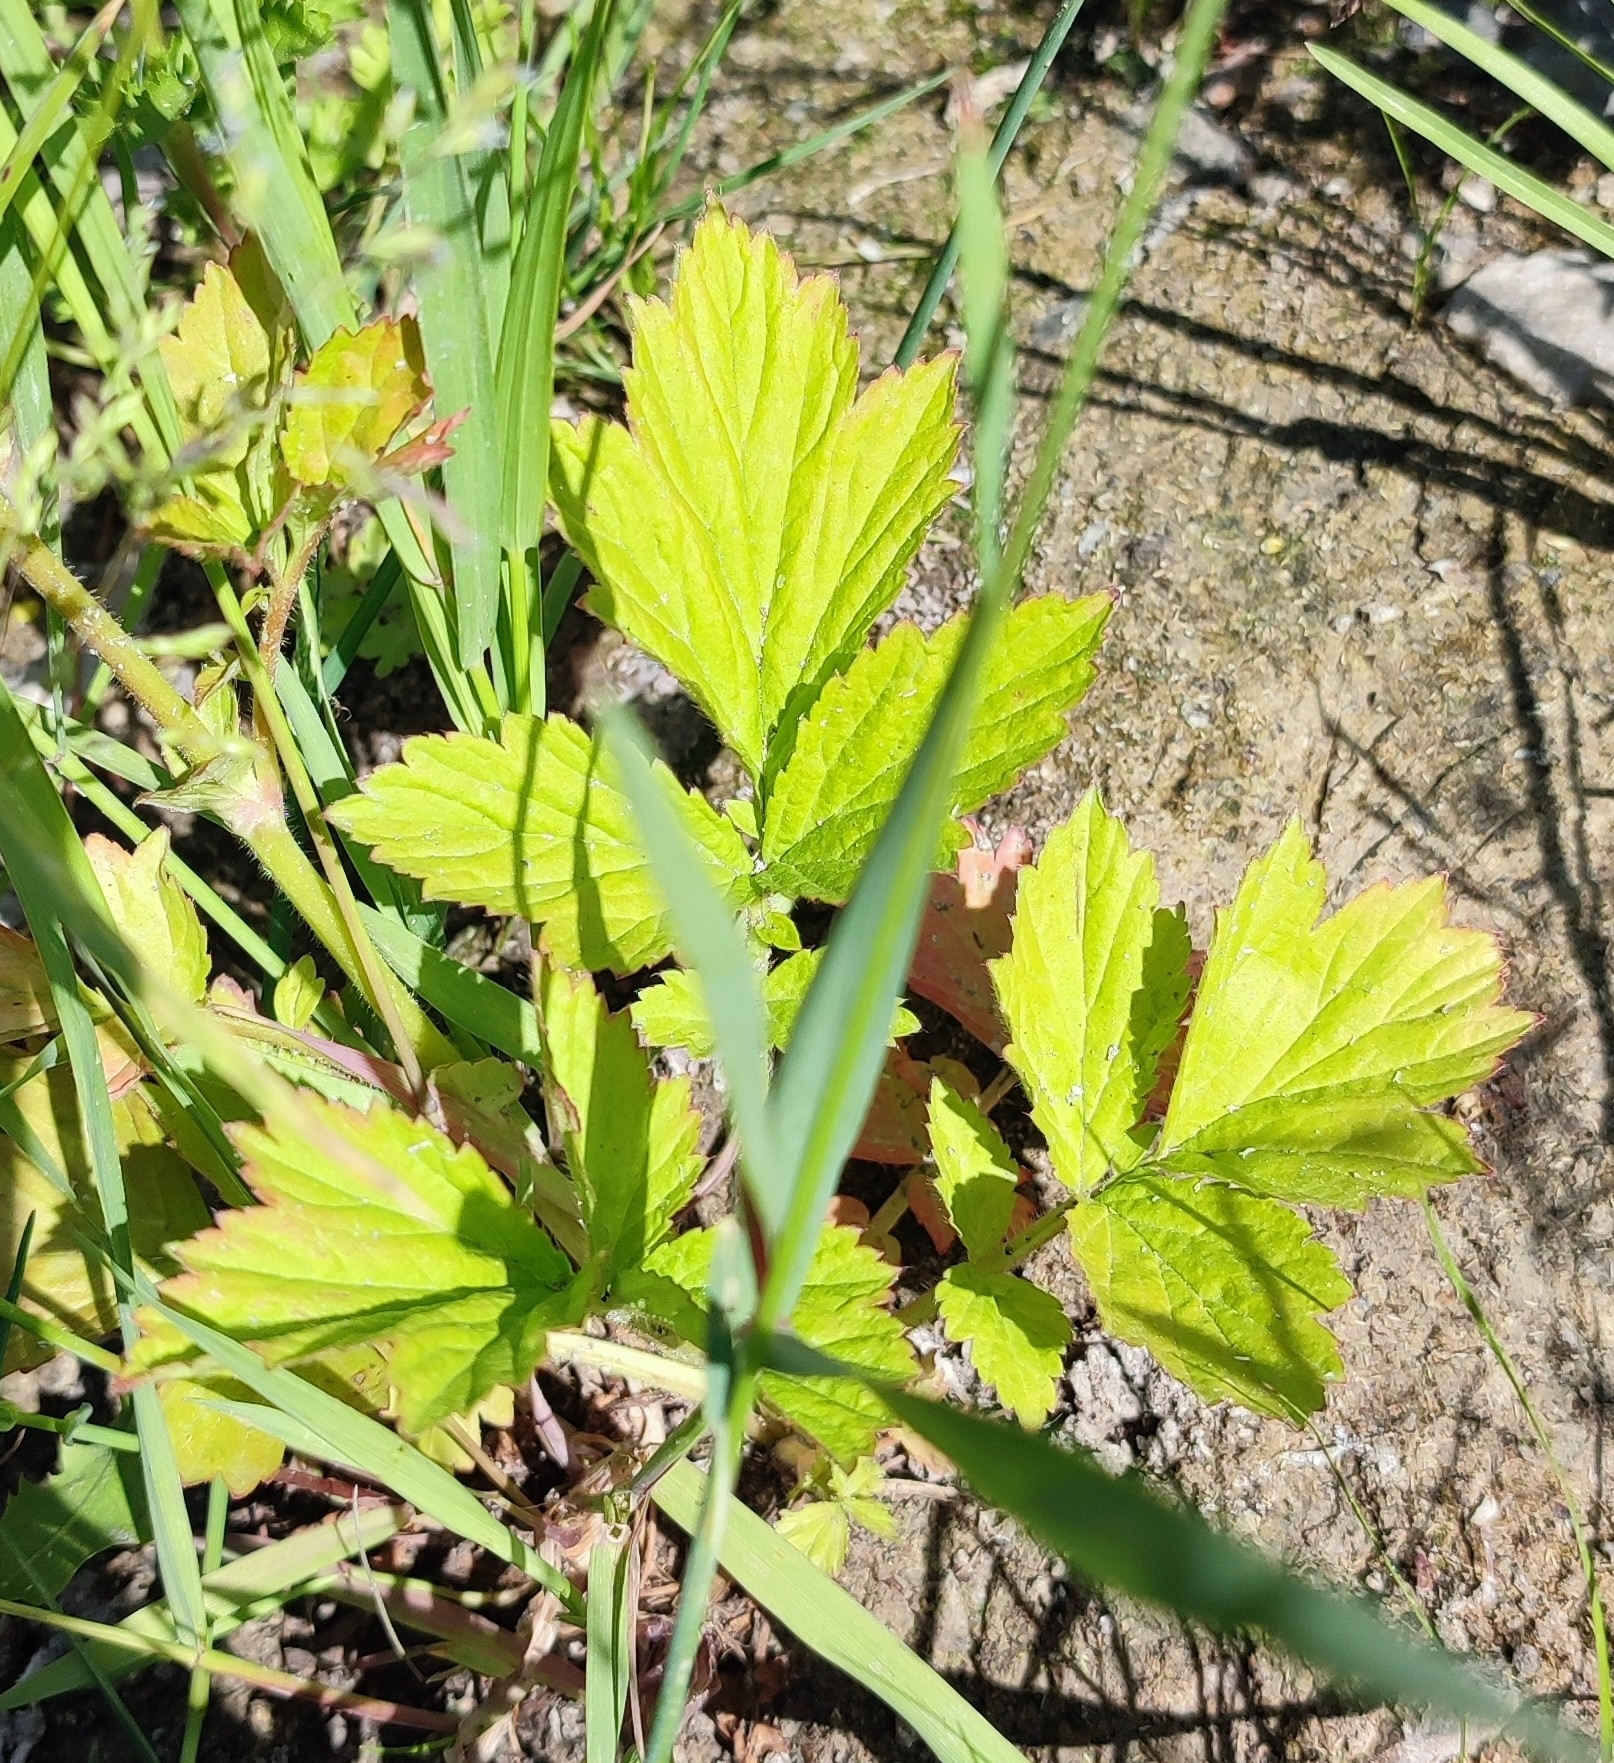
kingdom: Plantae
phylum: Tracheophyta
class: Magnoliopsida
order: Rosales
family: Rosaceae
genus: Geum
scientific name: Geum aleppicum
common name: Yellow avens
